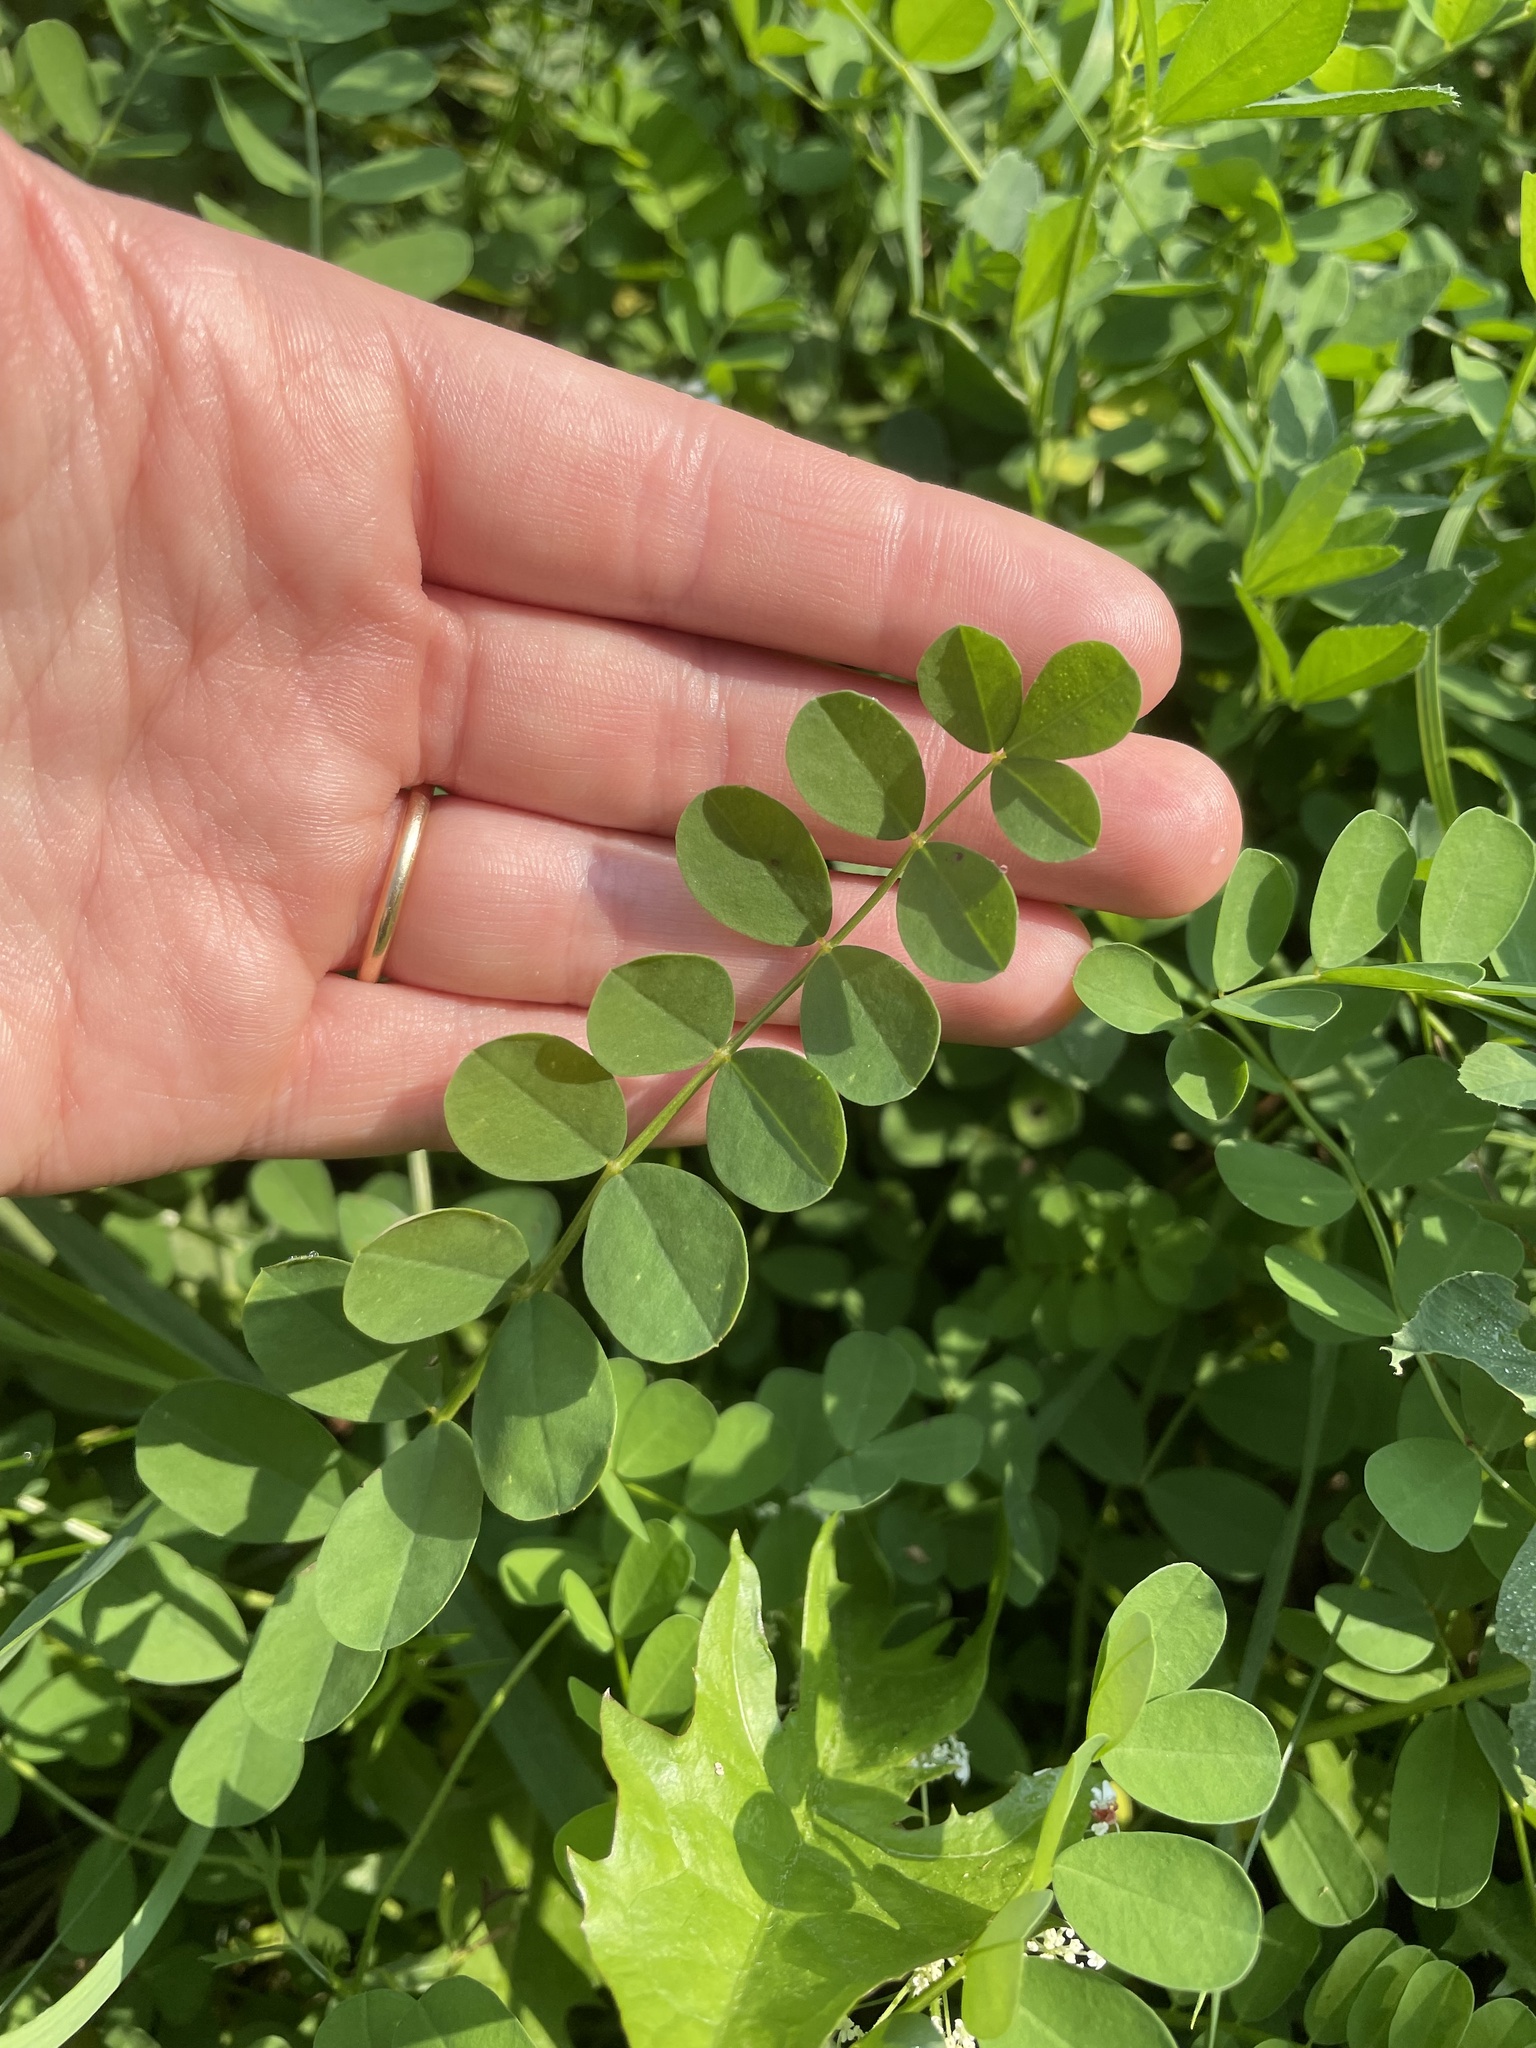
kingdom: Plantae
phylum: Tracheophyta
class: Magnoliopsida
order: Fabales
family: Fabaceae
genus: Coronilla
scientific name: Coronilla varia
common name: Crownvetch
